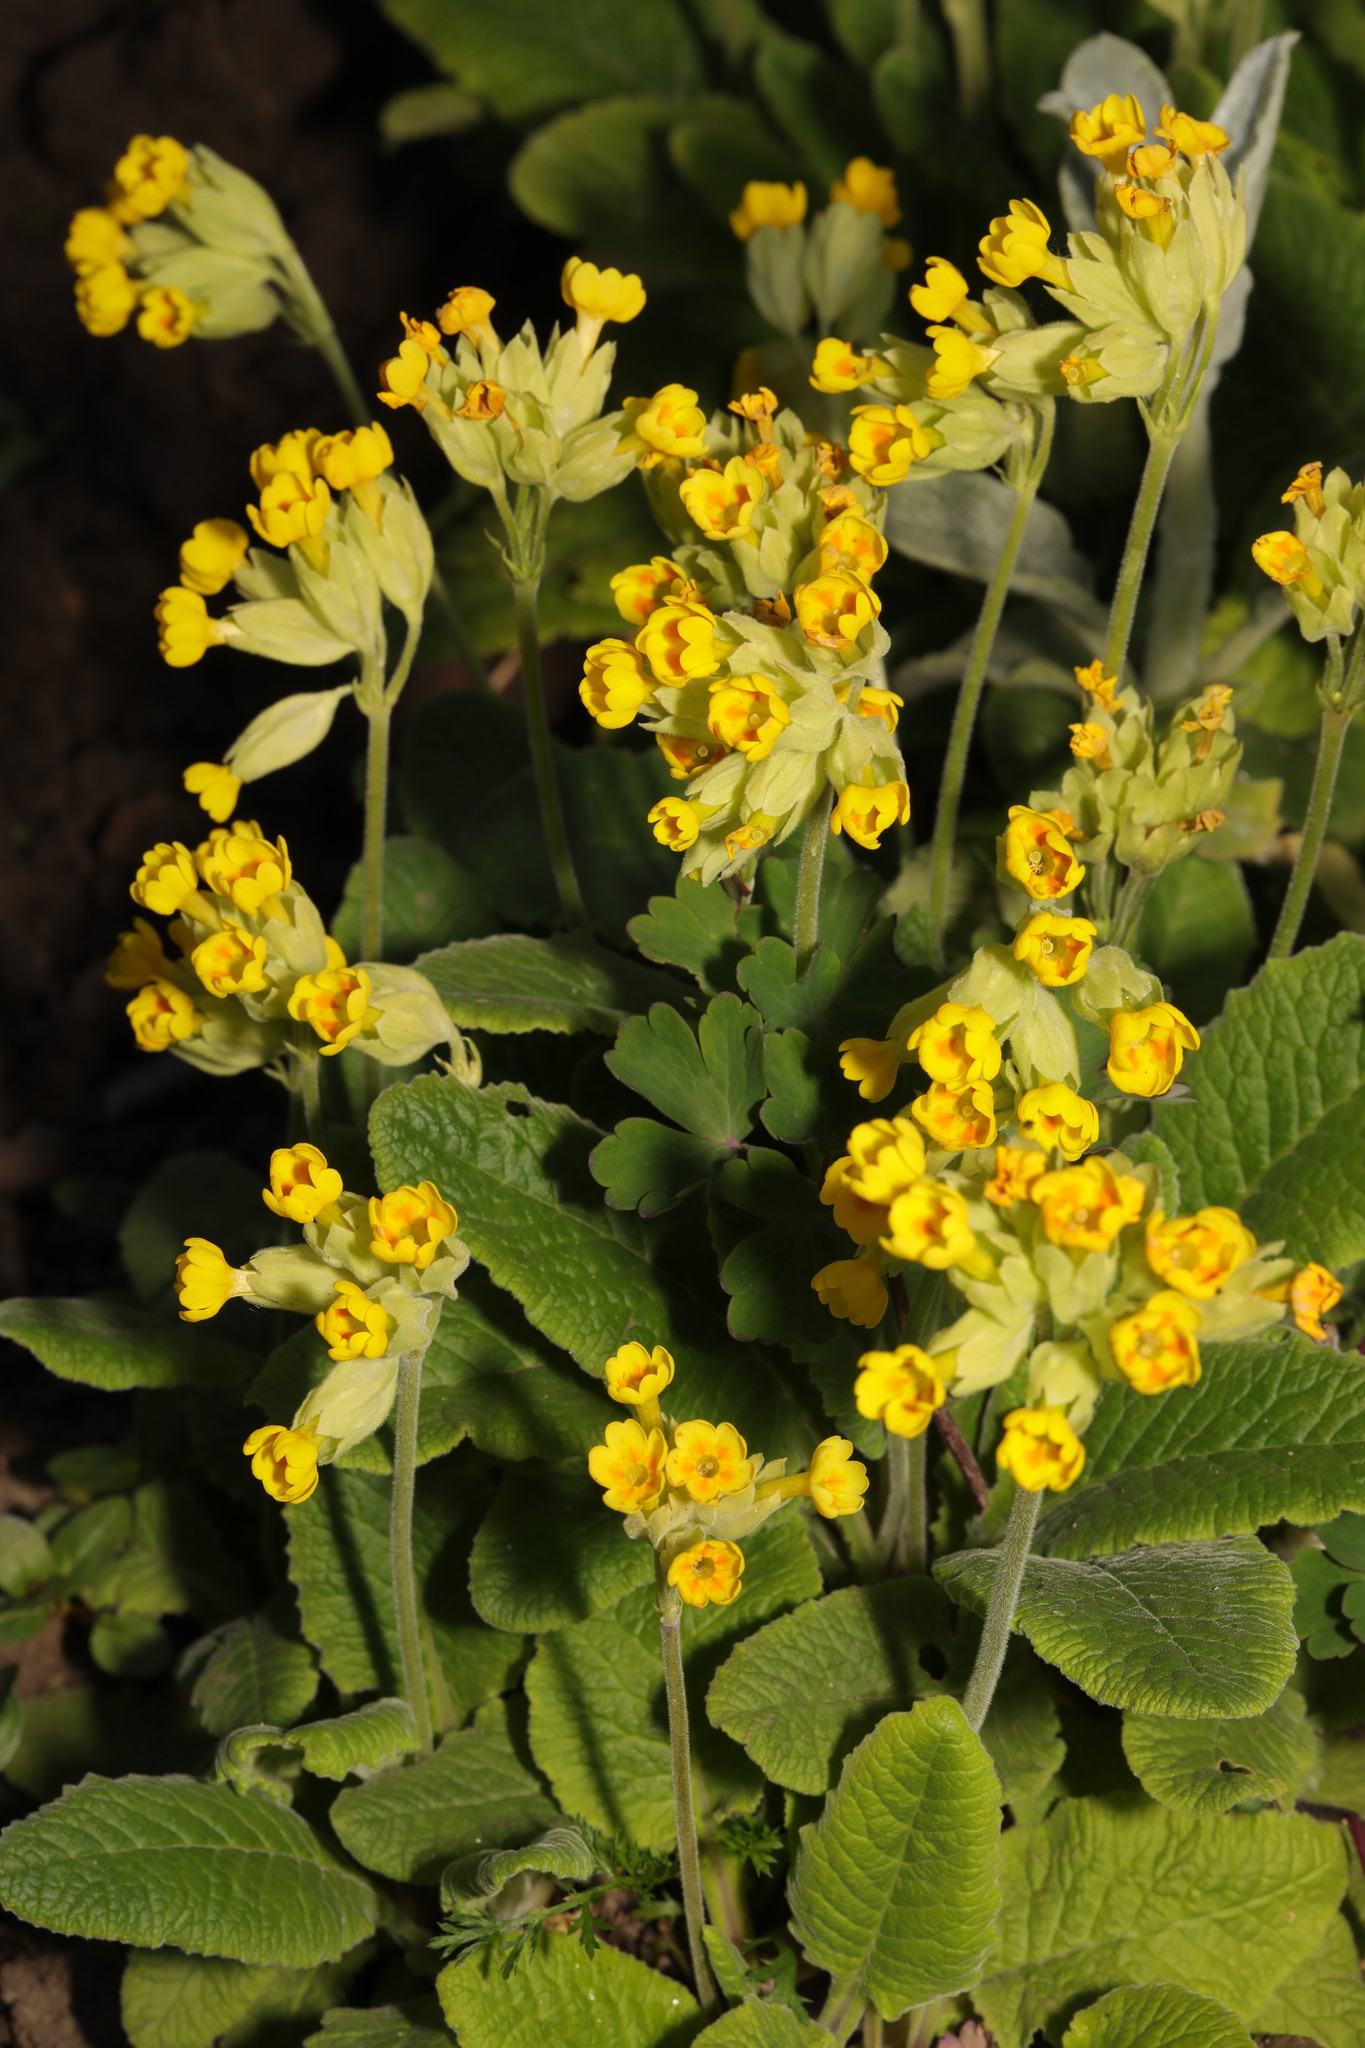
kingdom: Plantae
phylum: Tracheophyta
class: Magnoliopsida
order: Ericales
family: Primulaceae
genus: Primula
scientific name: Primula veris
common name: Cowslip
